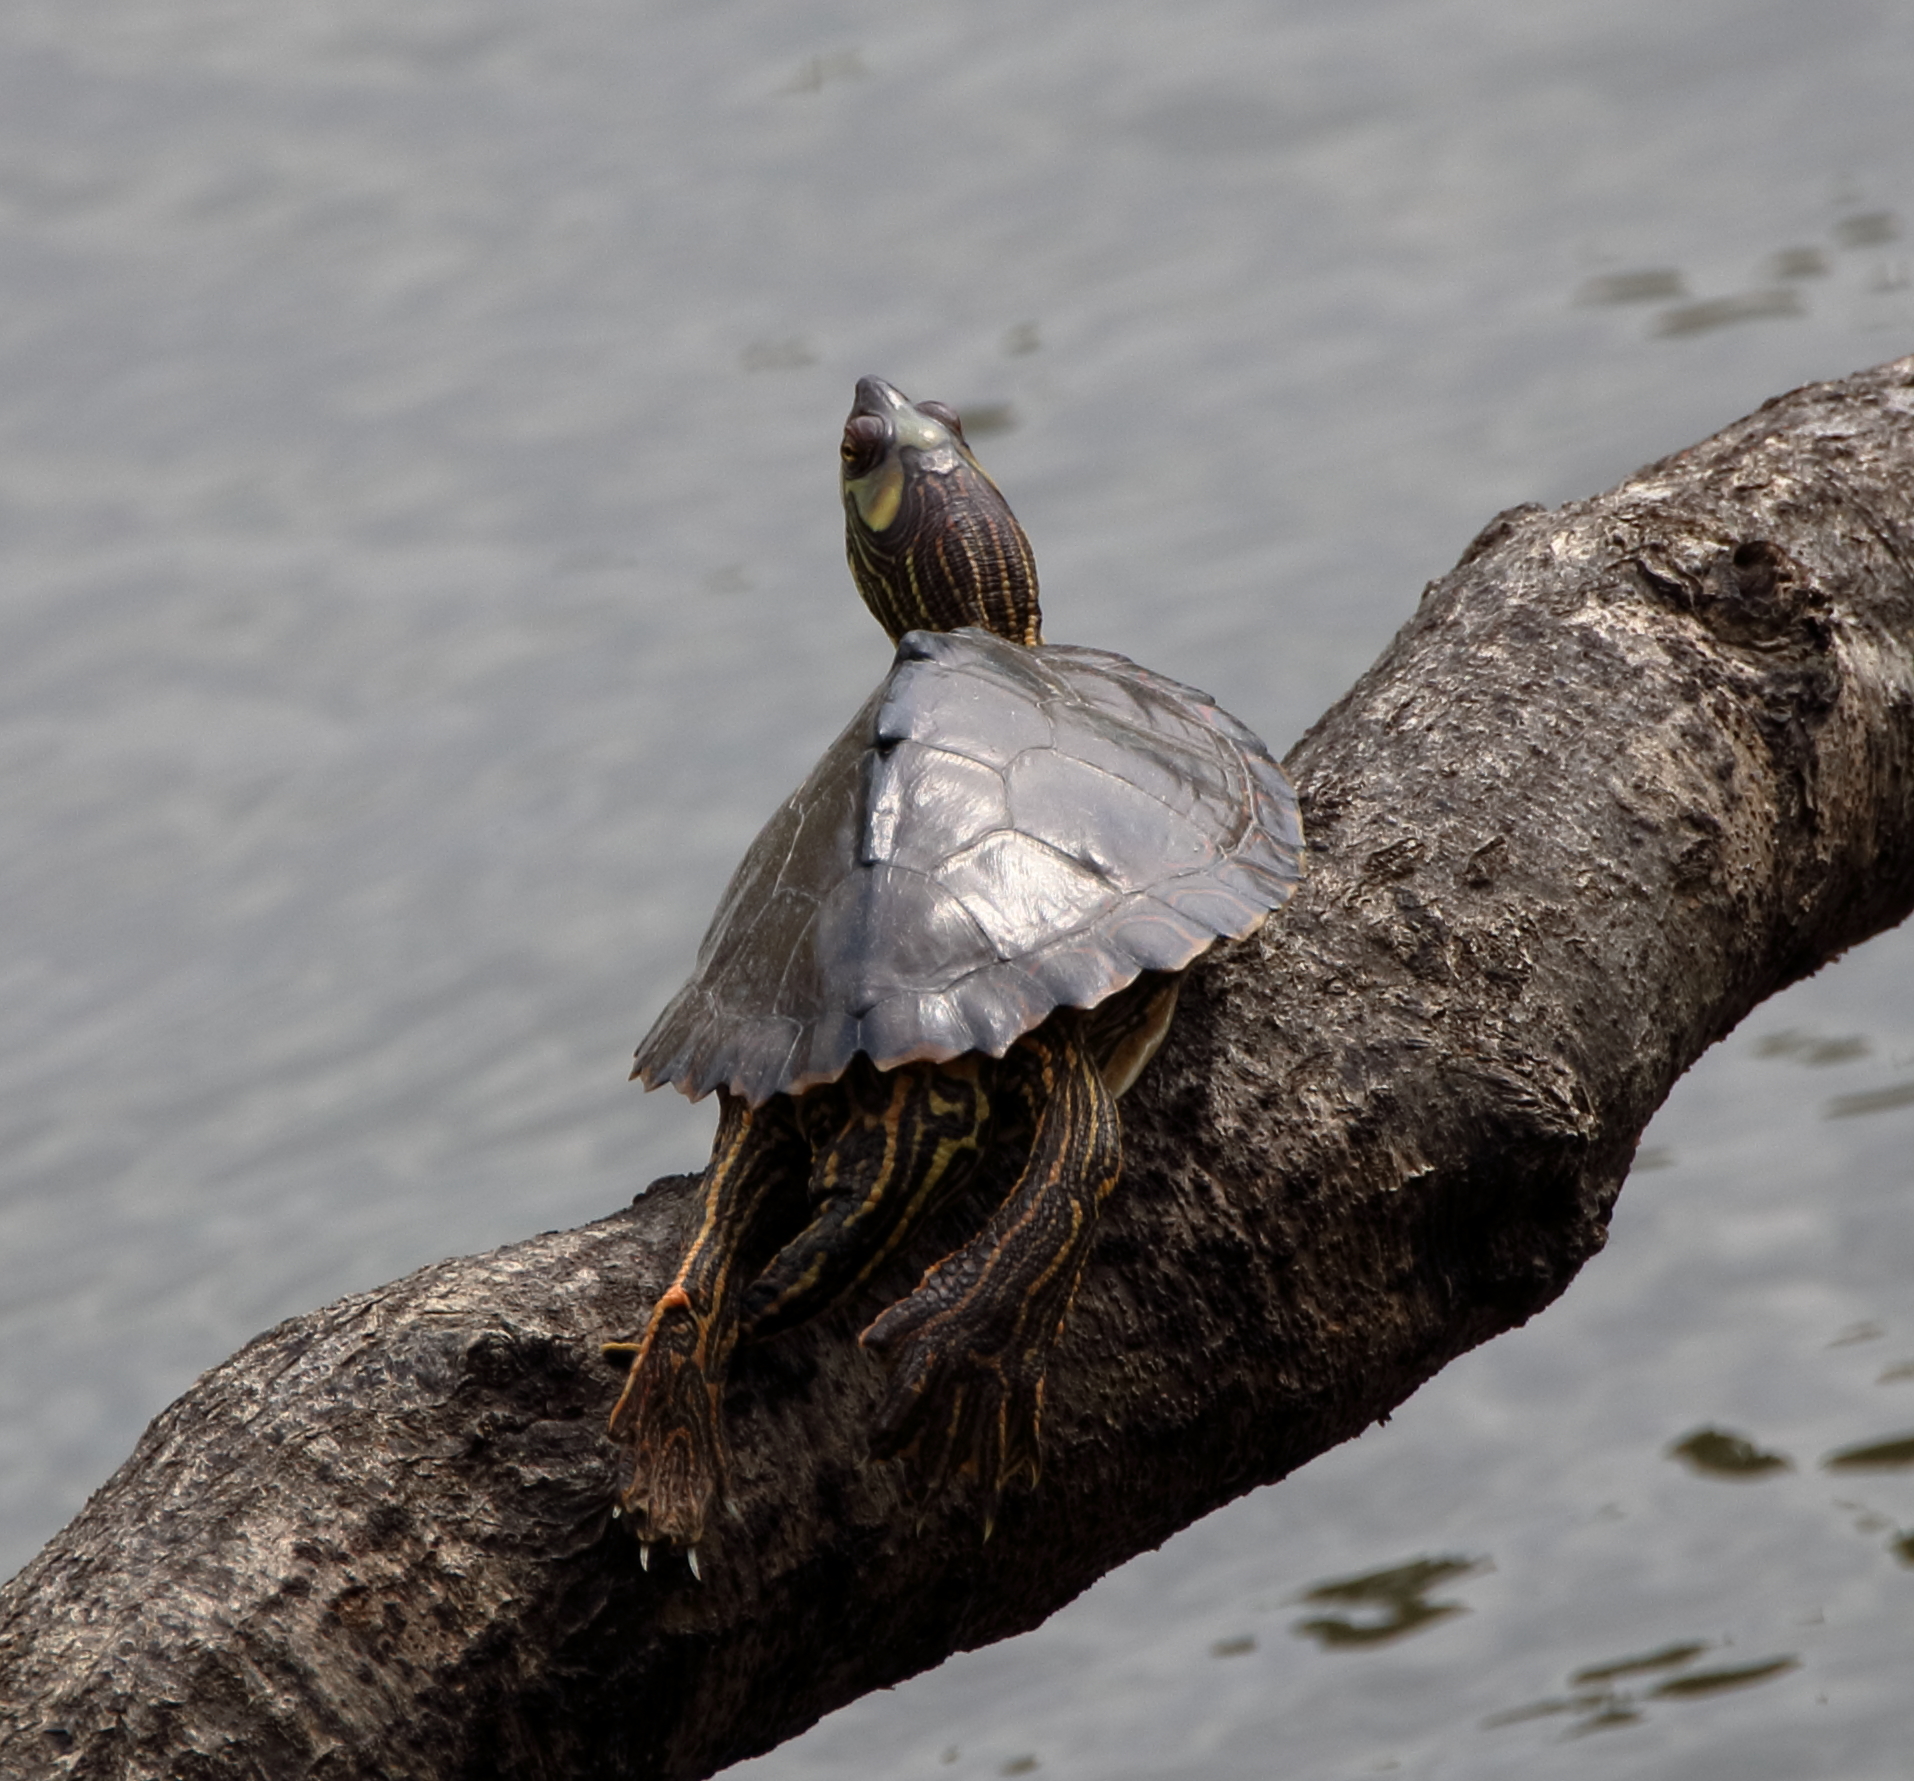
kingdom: Animalia
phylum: Chordata
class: Testudines
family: Emydidae
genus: Graptemys
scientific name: Graptemys pearlensis
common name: Pearl river map turtle
